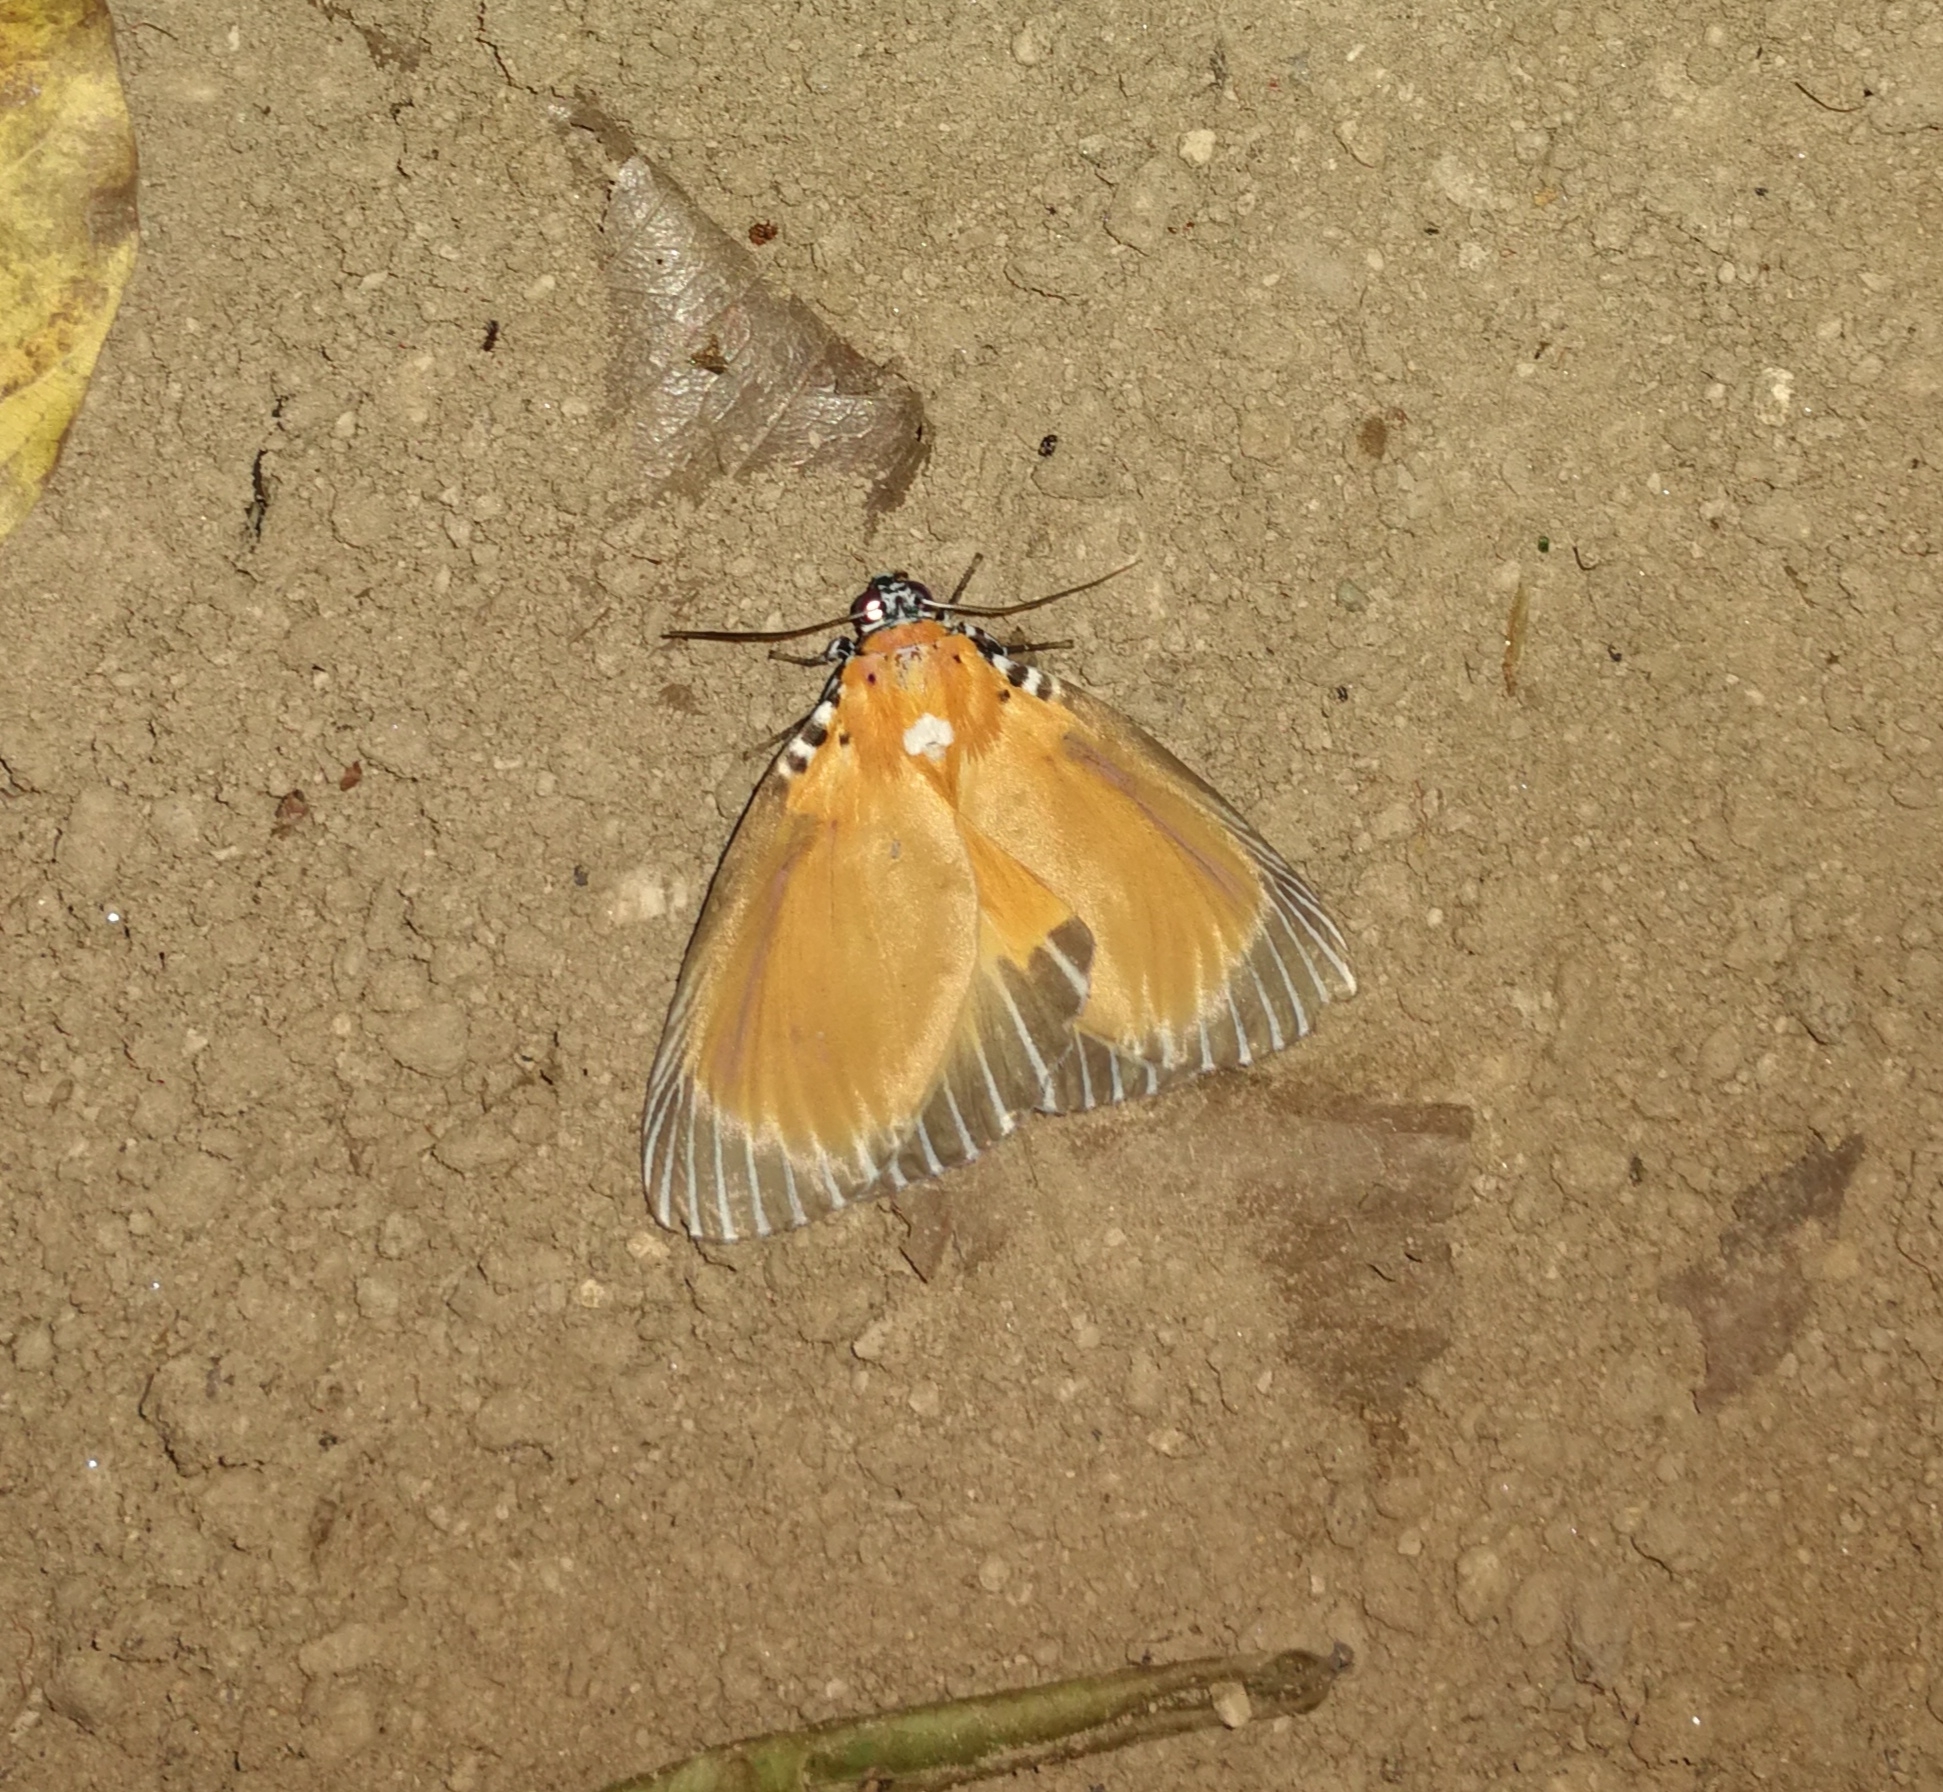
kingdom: Animalia
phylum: Arthropoda
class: Insecta
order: Lepidoptera
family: Erebidae
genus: Peridrome
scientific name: Peridrome subfascia
